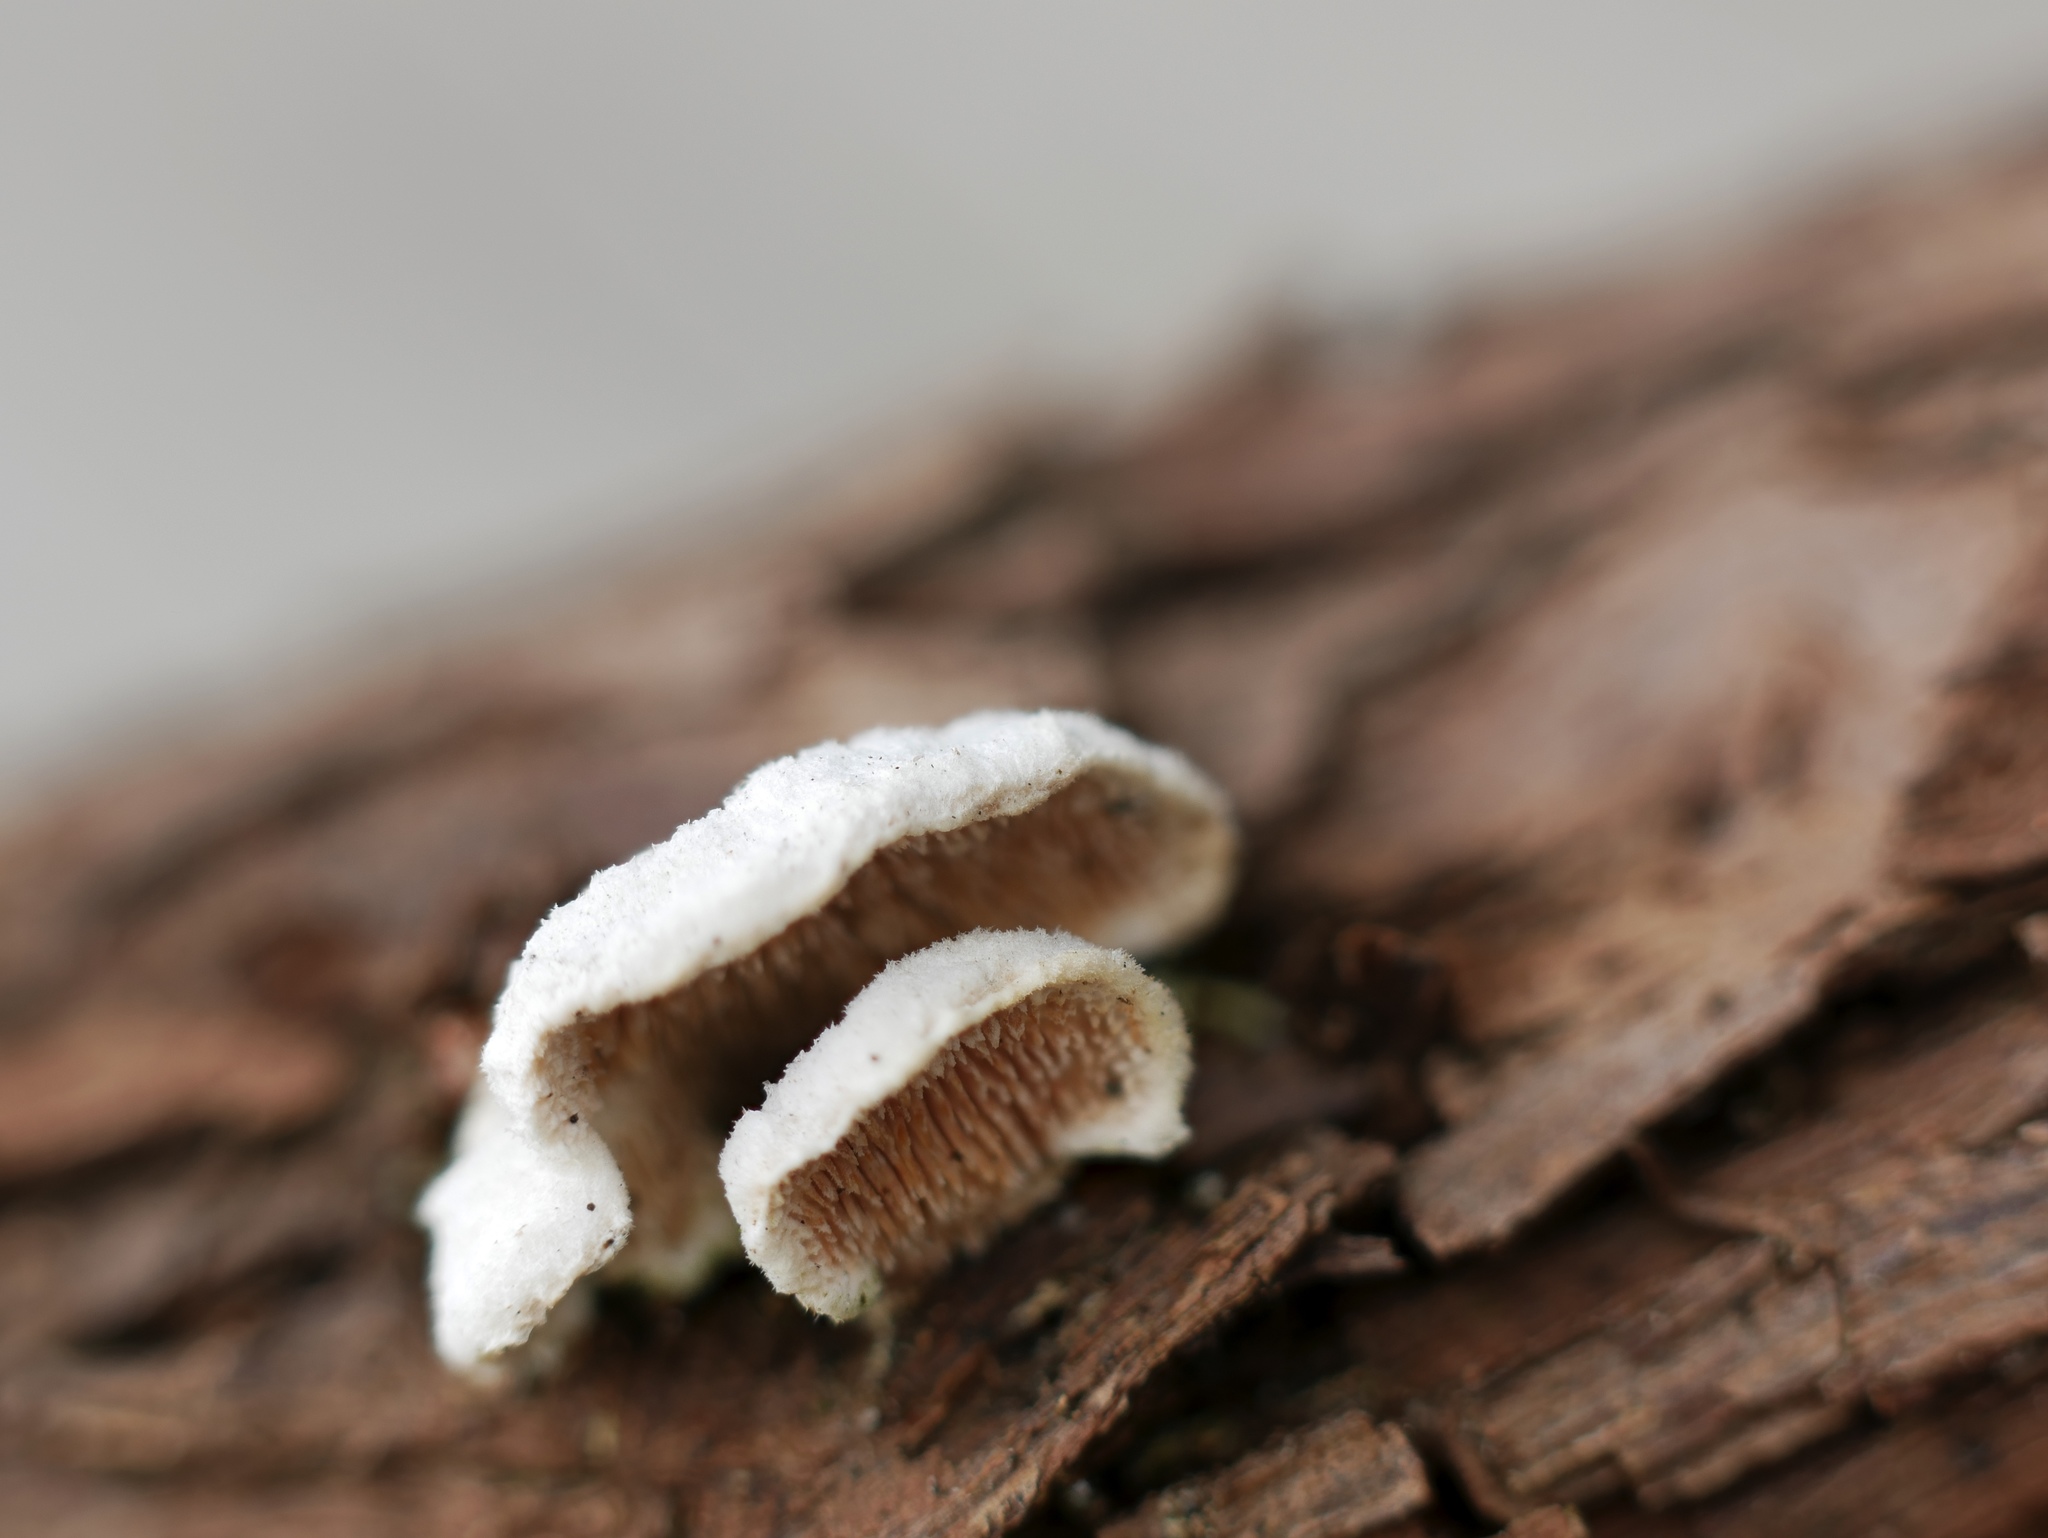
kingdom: Fungi
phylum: Basidiomycota
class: Agaricomycetes
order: Polyporales
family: Steccherinaceae
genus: Steccherinum
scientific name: Steccherinum ochraceum
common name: Ochre spreading tooth
